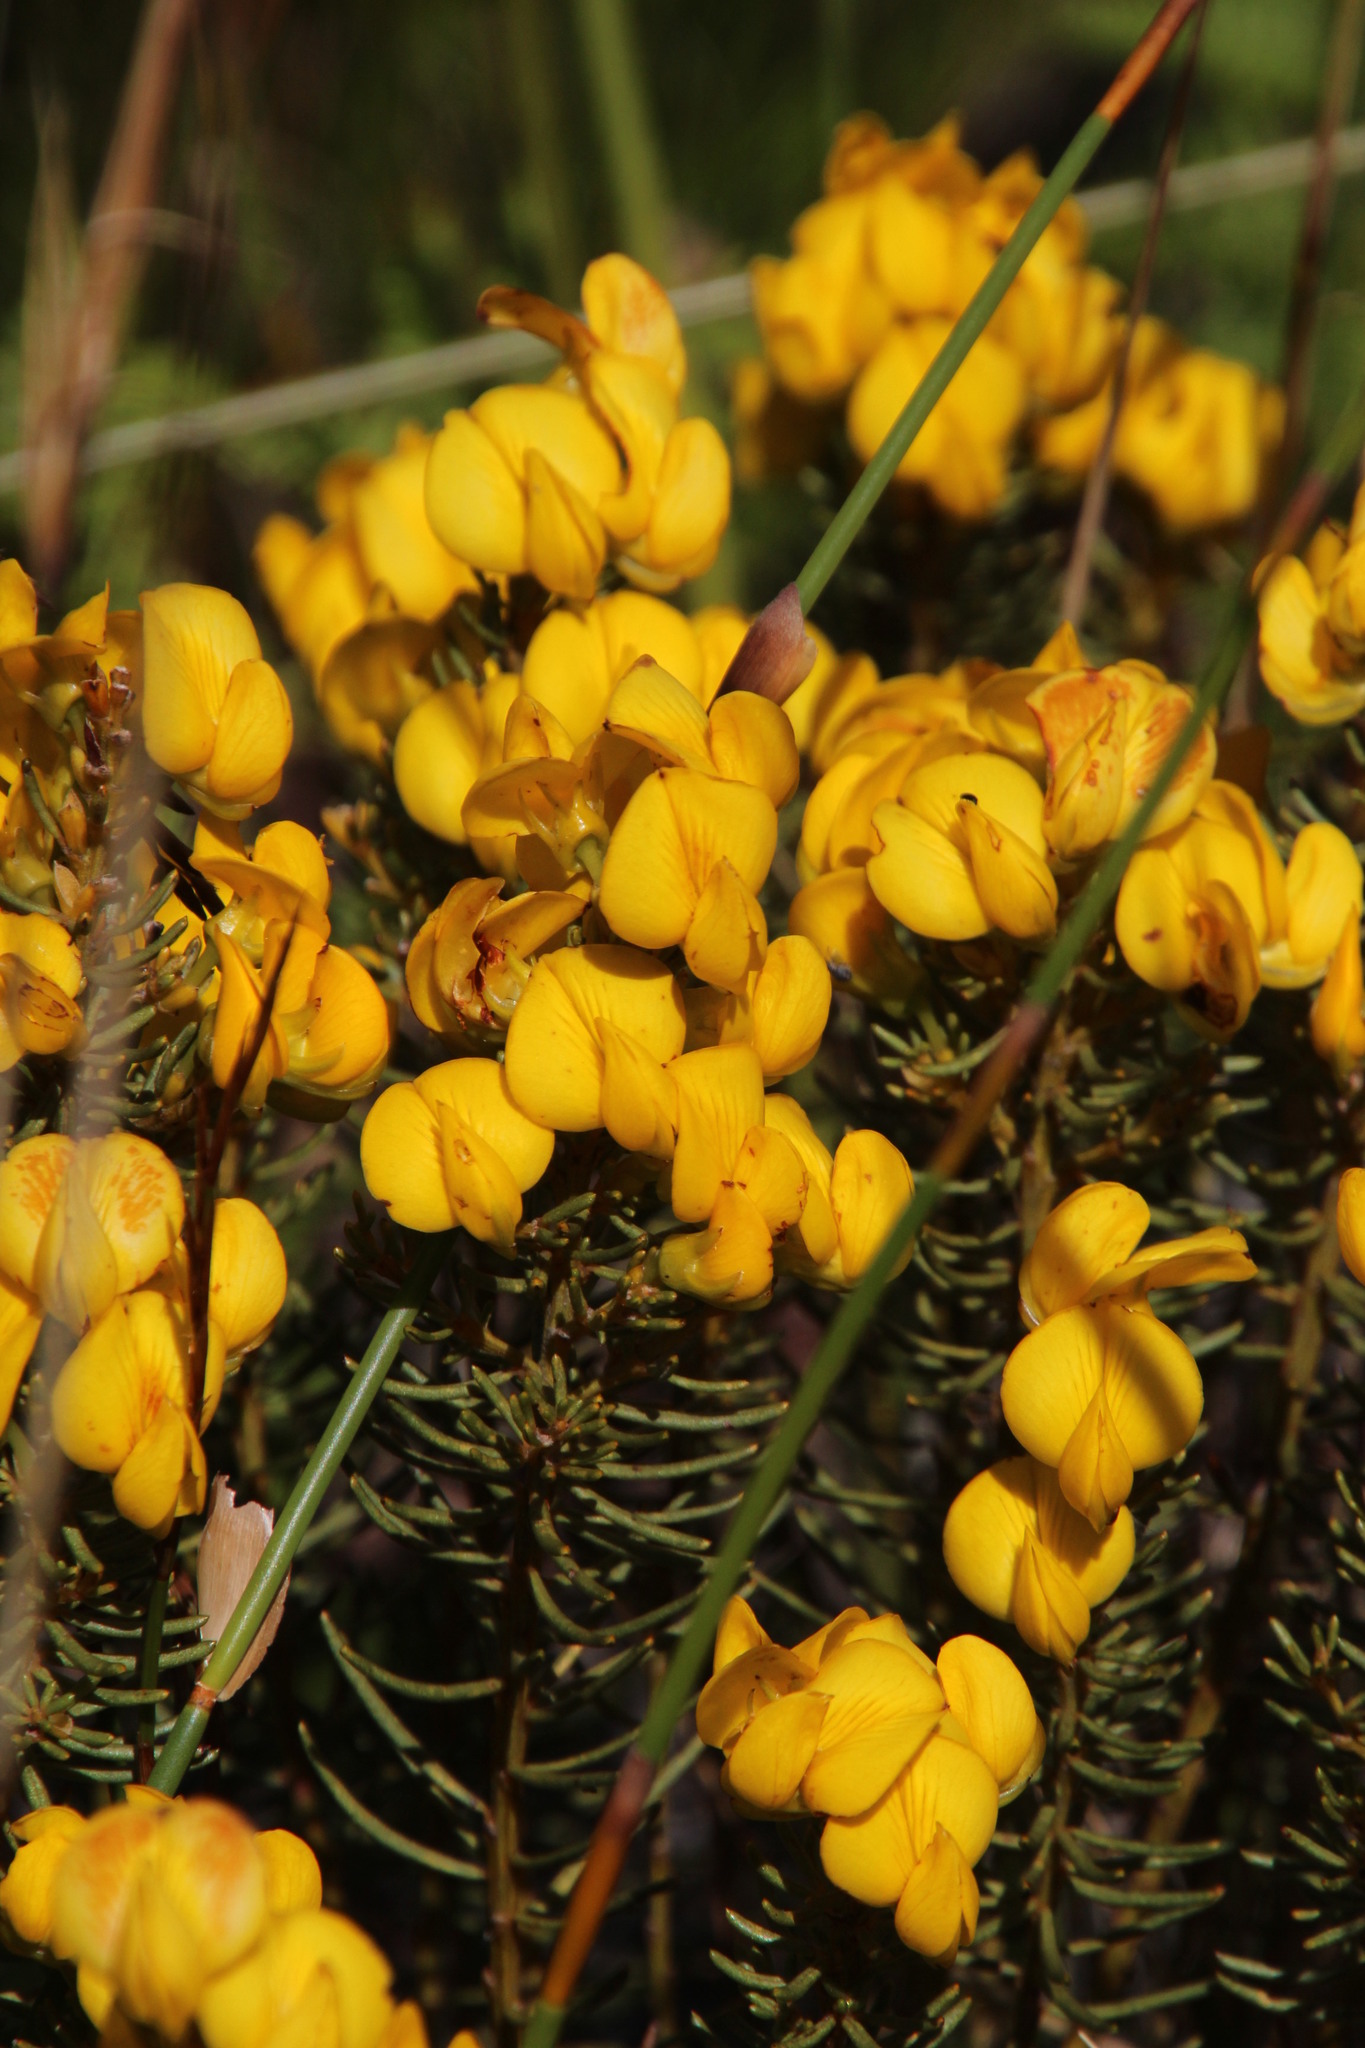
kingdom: Plantae
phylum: Tracheophyta
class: Magnoliopsida
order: Fabales
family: Fabaceae
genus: Cyclopia
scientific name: Cyclopia genistoides
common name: Honeybush tea
